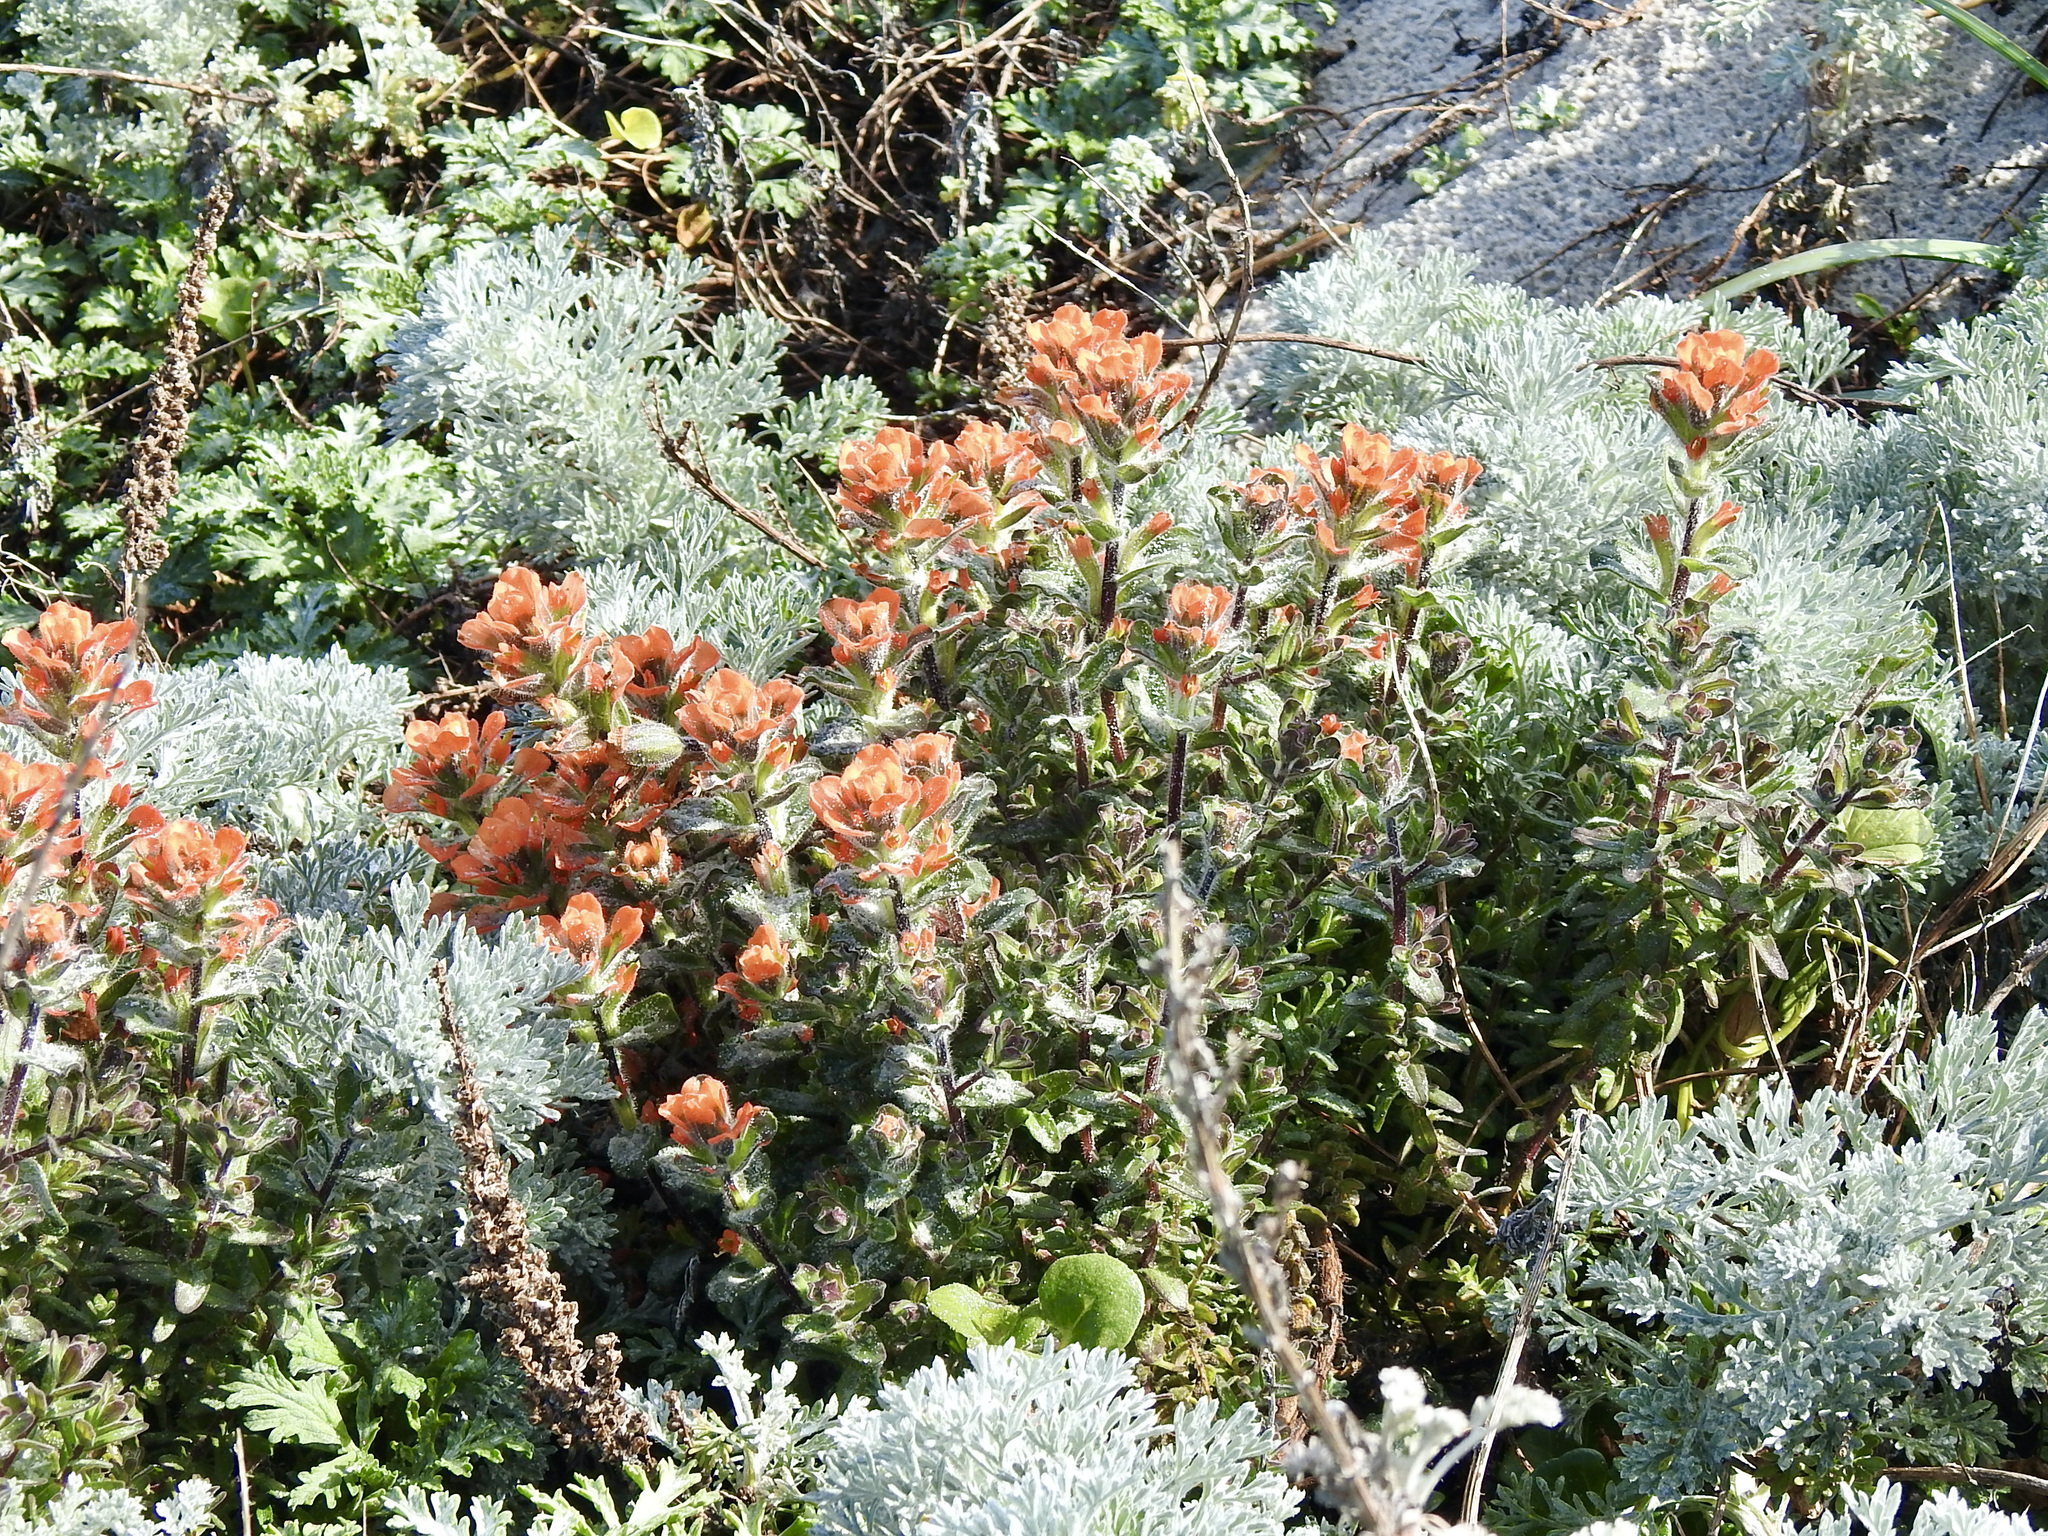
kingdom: Plantae
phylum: Tracheophyta
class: Magnoliopsida
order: Lamiales
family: Orobanchaceae
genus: Castilleja
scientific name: Castilleja latifolia
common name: Monterey indian paintbrush
